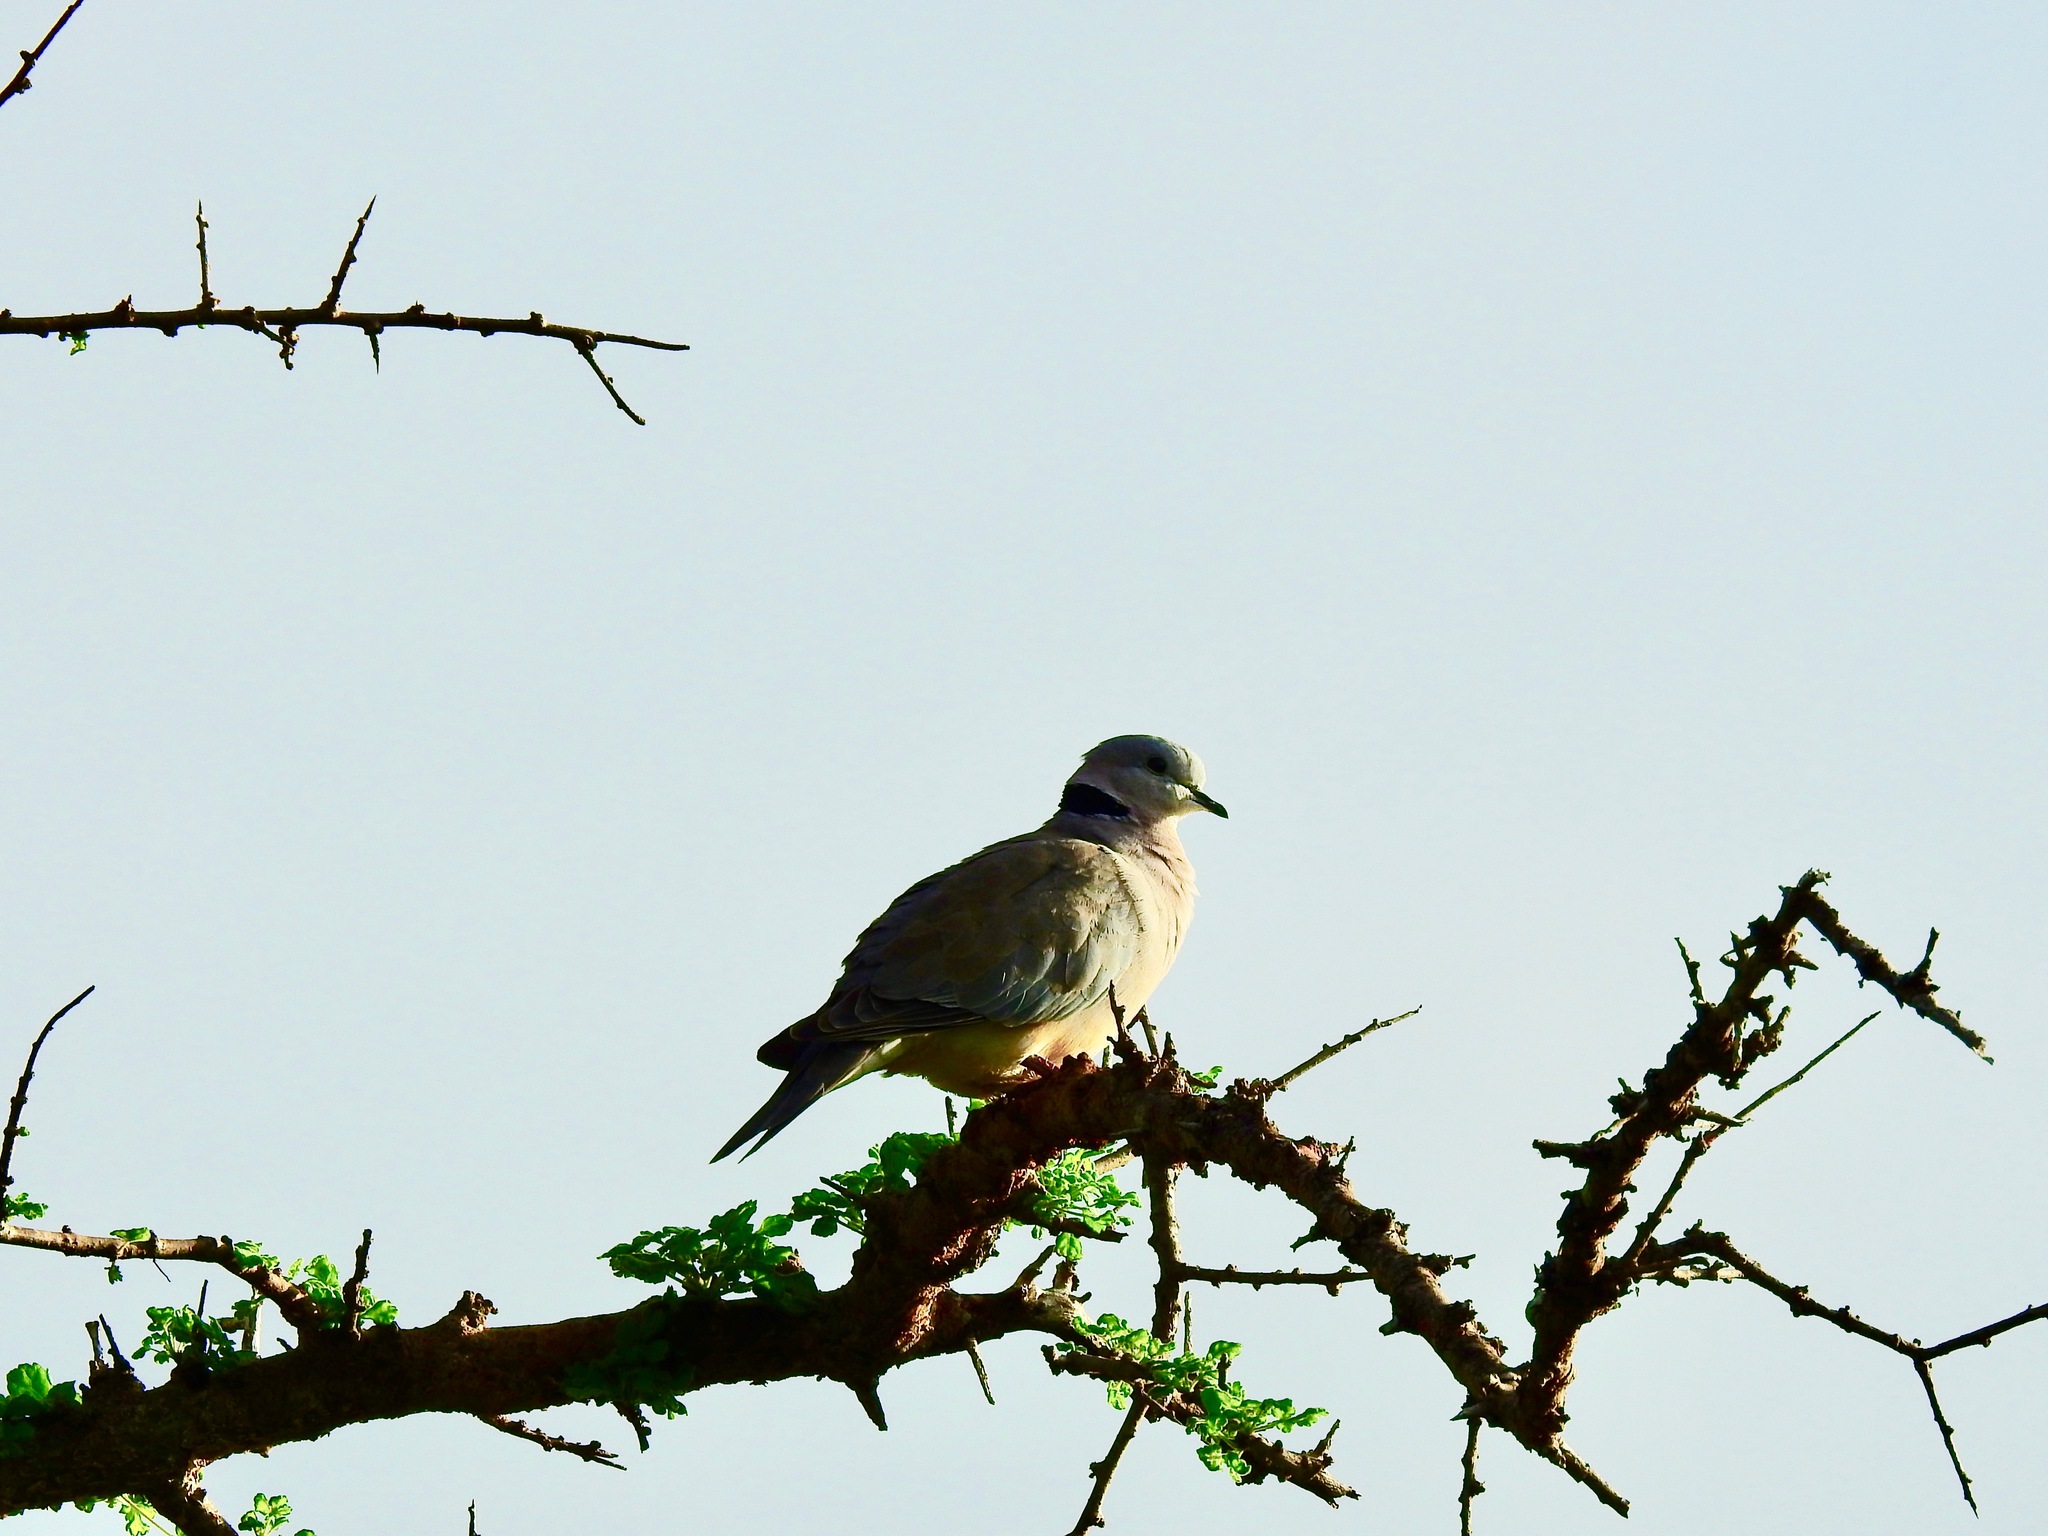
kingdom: Animalia
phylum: Chordata
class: Aves
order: Columbiformes
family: Columbidae
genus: Streptopelia
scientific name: Streptopelia capicola
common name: Ring-necked dove
